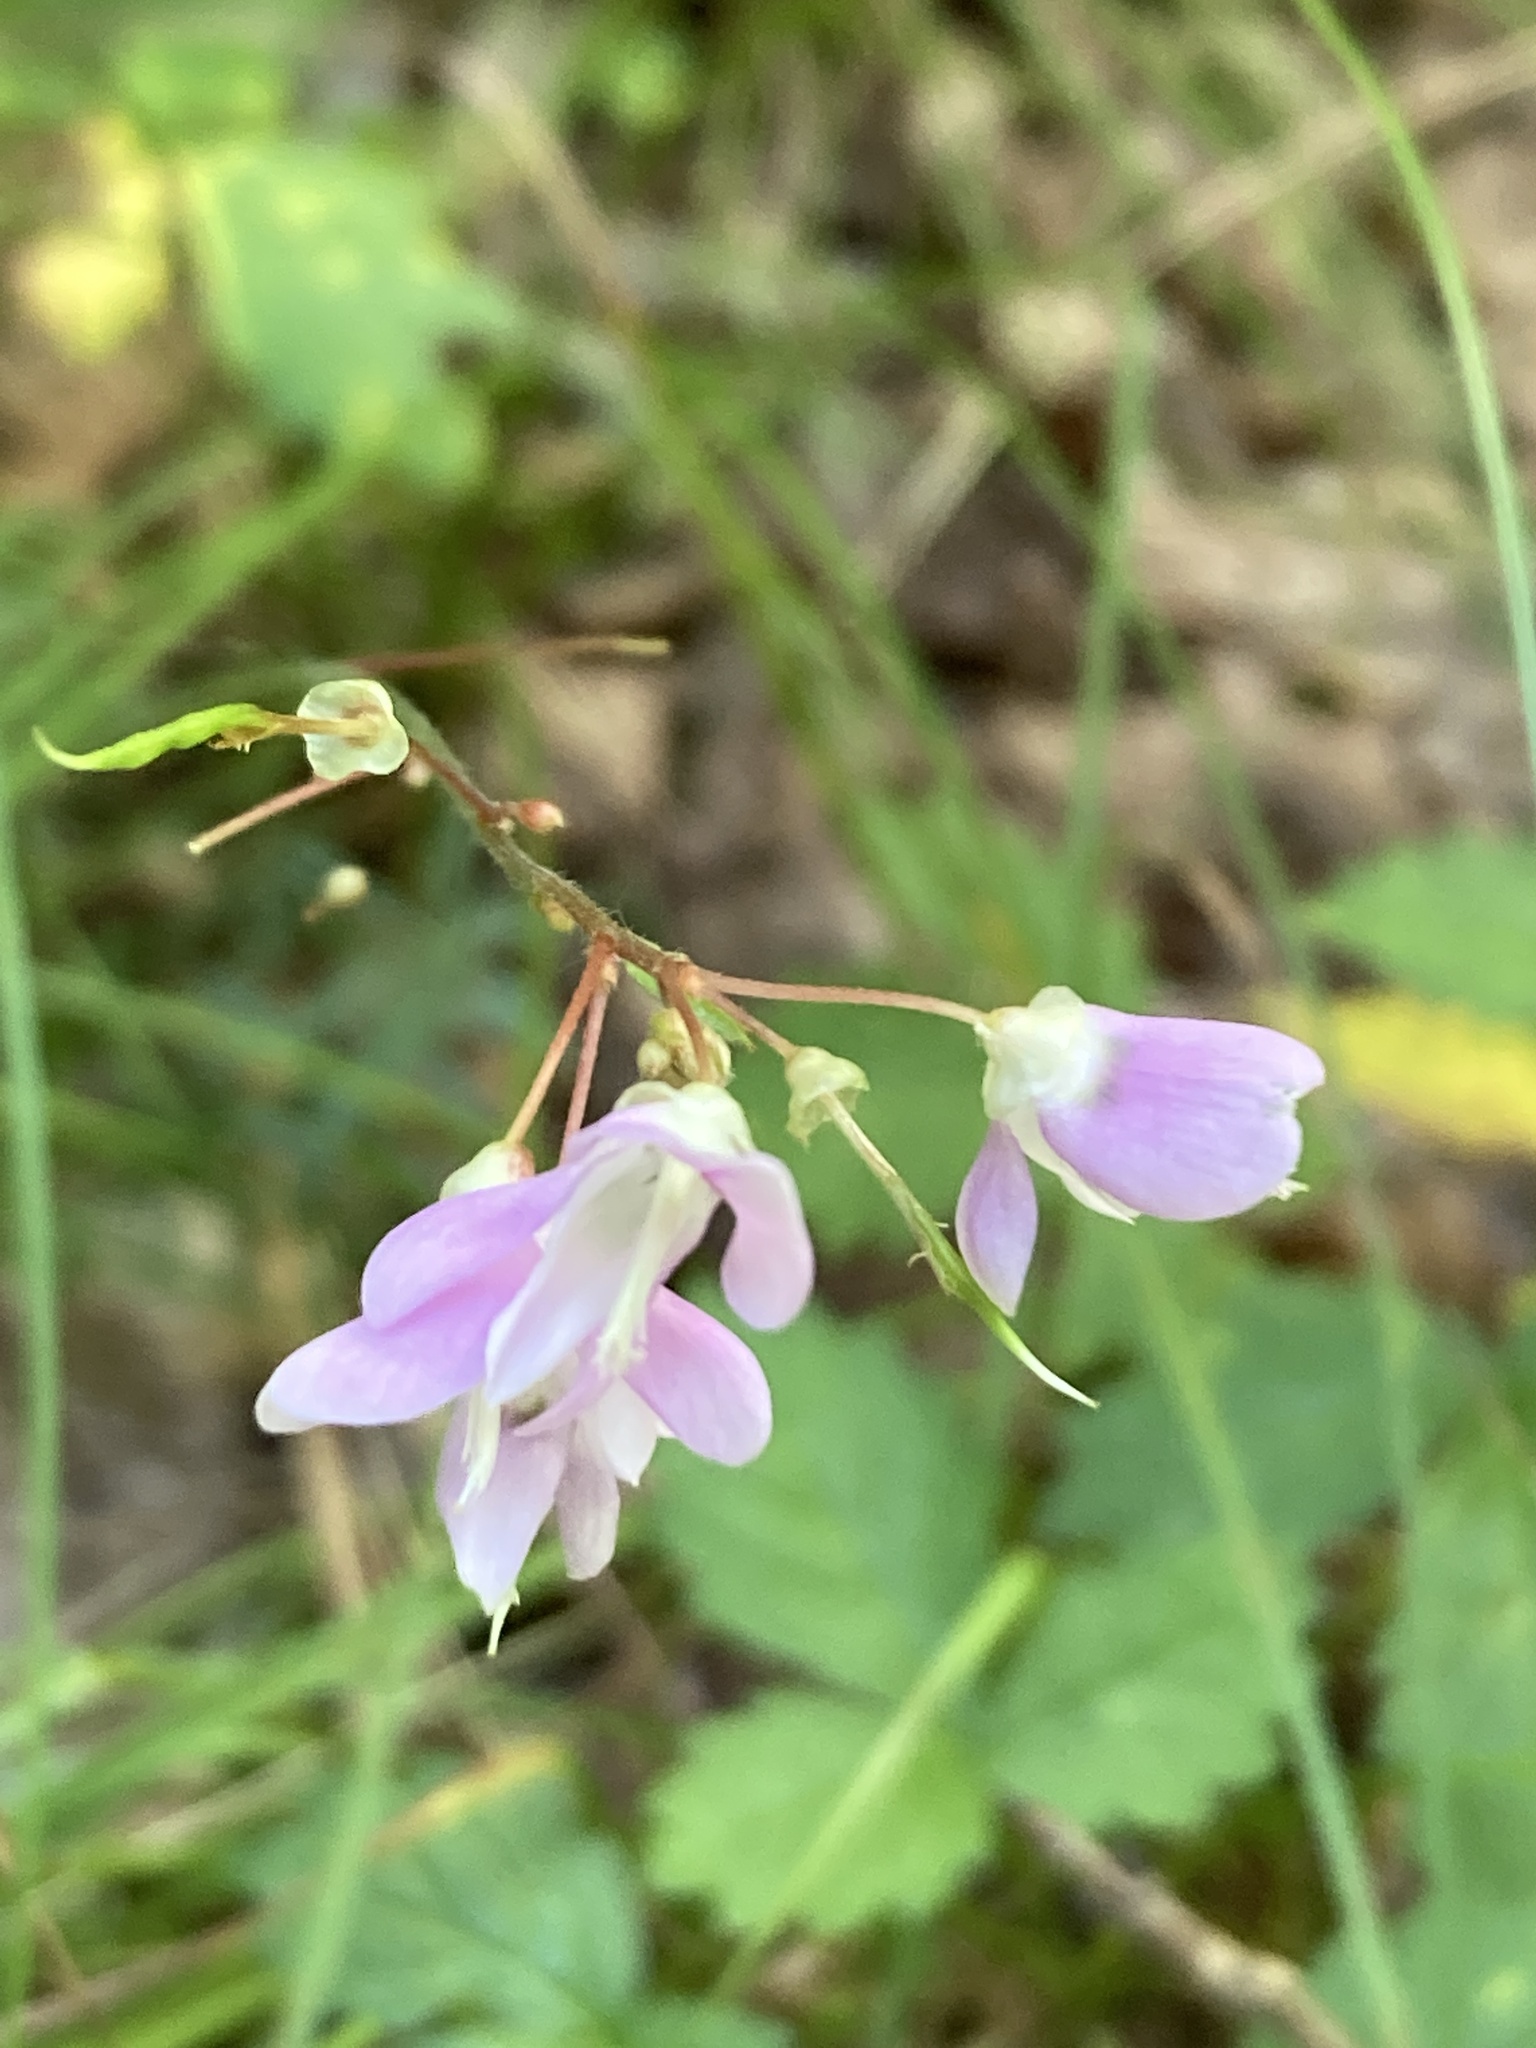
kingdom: Plantae
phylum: Tracheophyta
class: Magnoliopsida
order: Fabales
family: Fabaceae
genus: Hylodesmum
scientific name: Hylodesmum nudiflorum
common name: Bare-stemmed tick-trefoil
